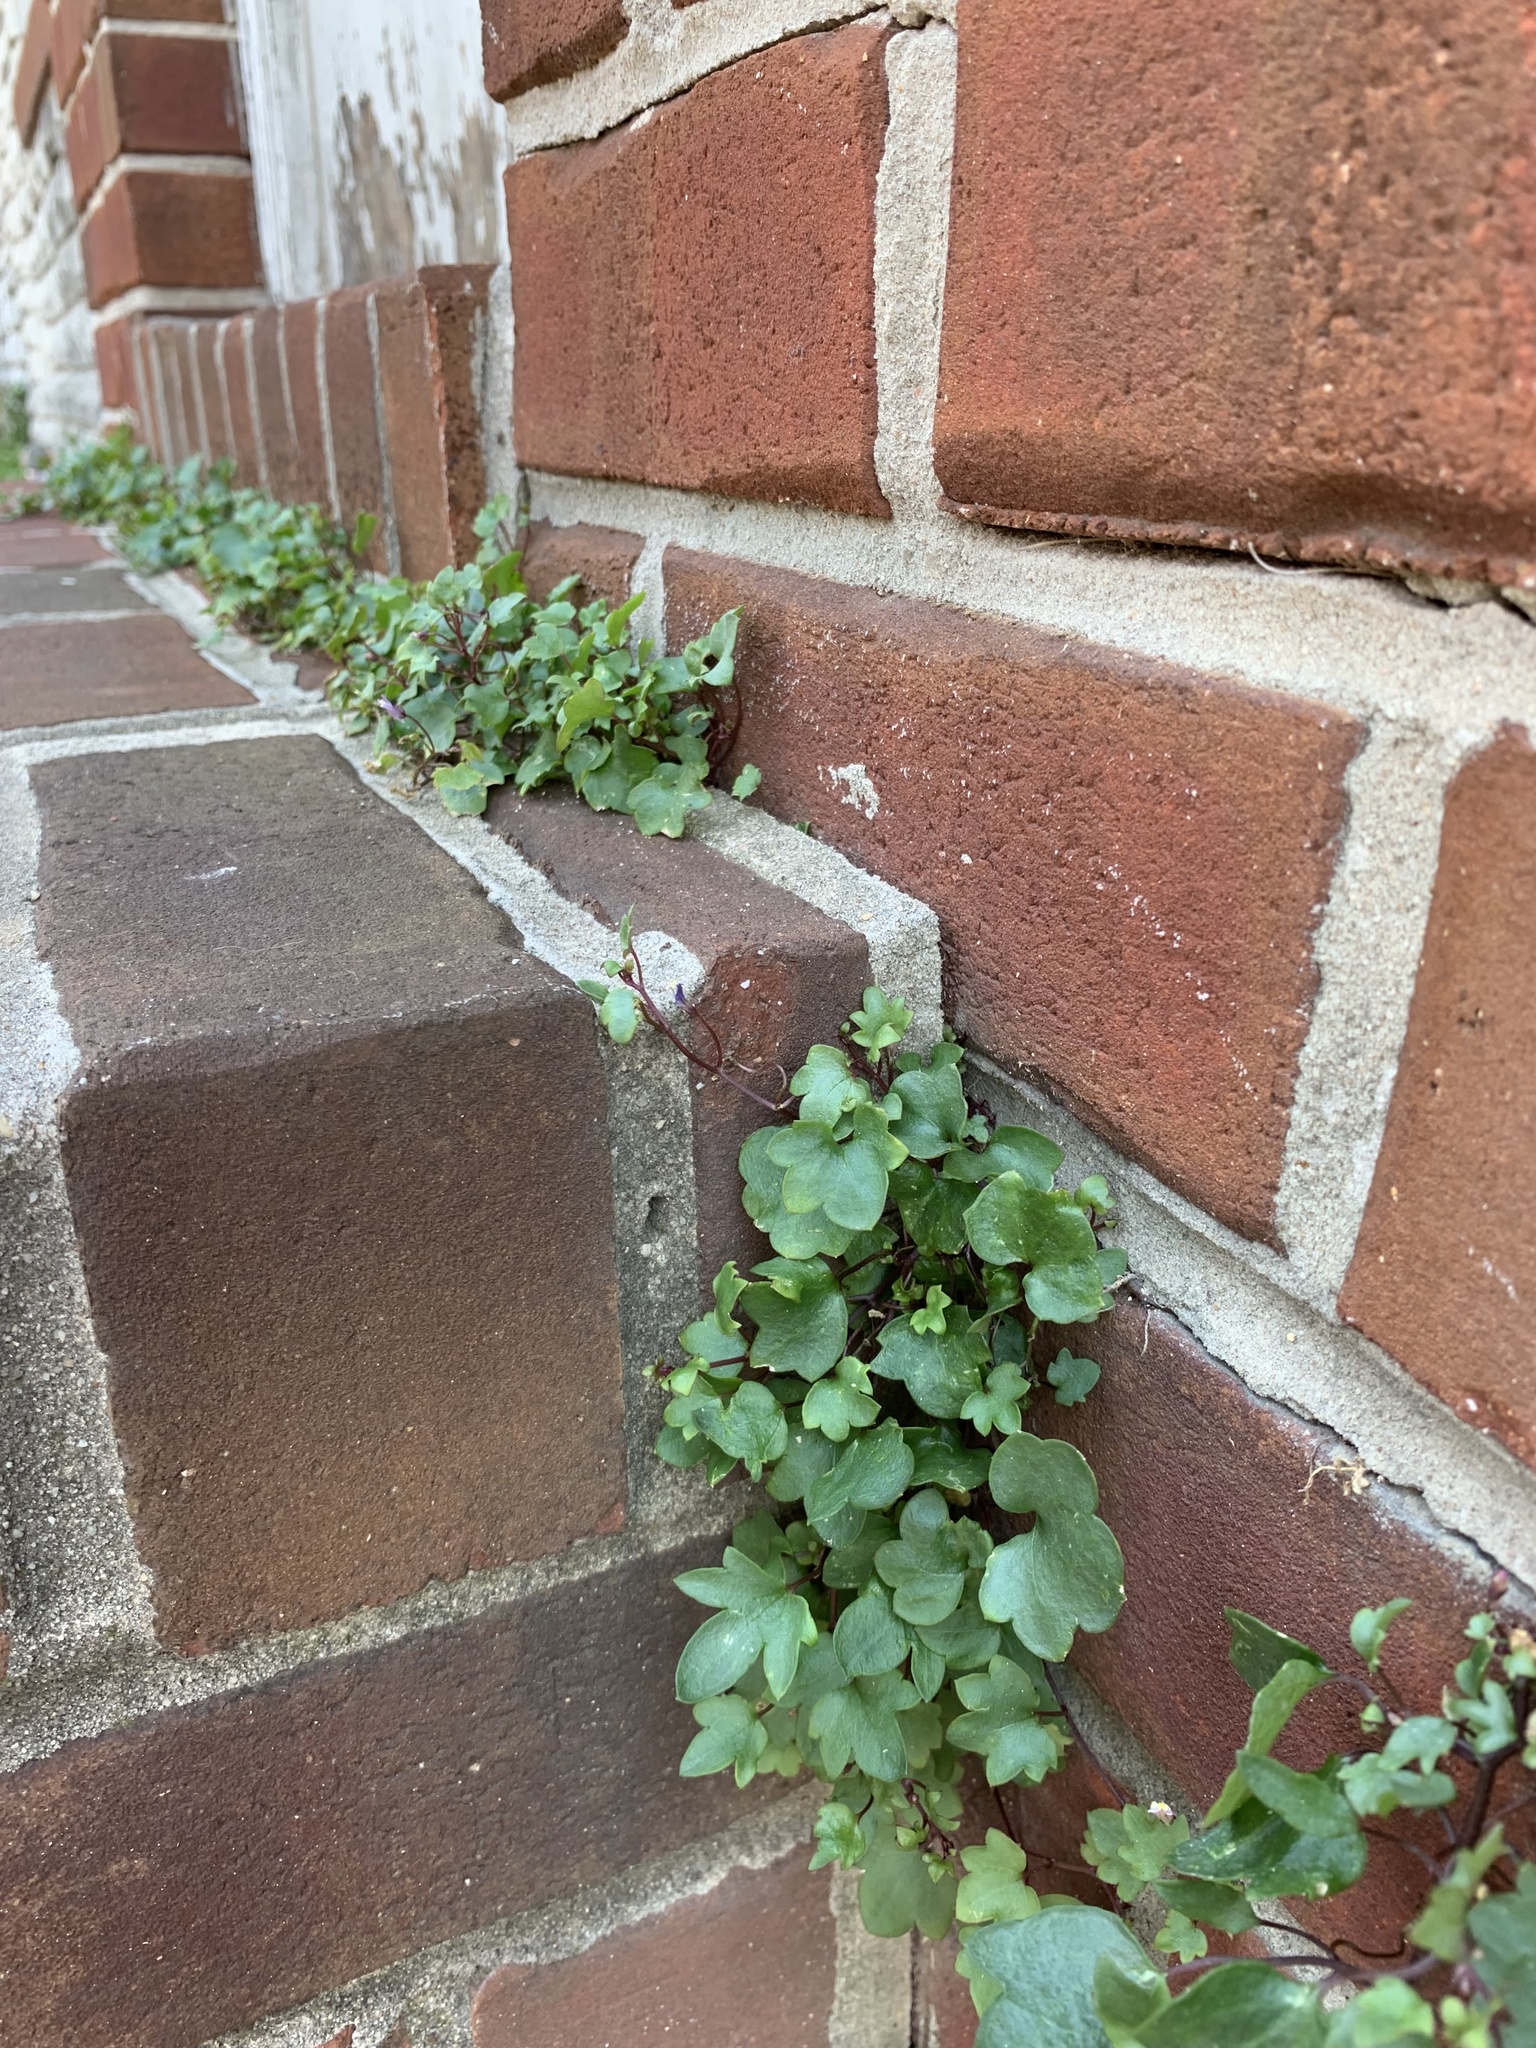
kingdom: Plantae
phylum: Tracheophyta
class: Magnoliopsida
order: Lamiales
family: Plantaginaceae
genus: Cymbalaria
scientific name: Cymbalaria muralis
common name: Ivy-leaved toadflax
